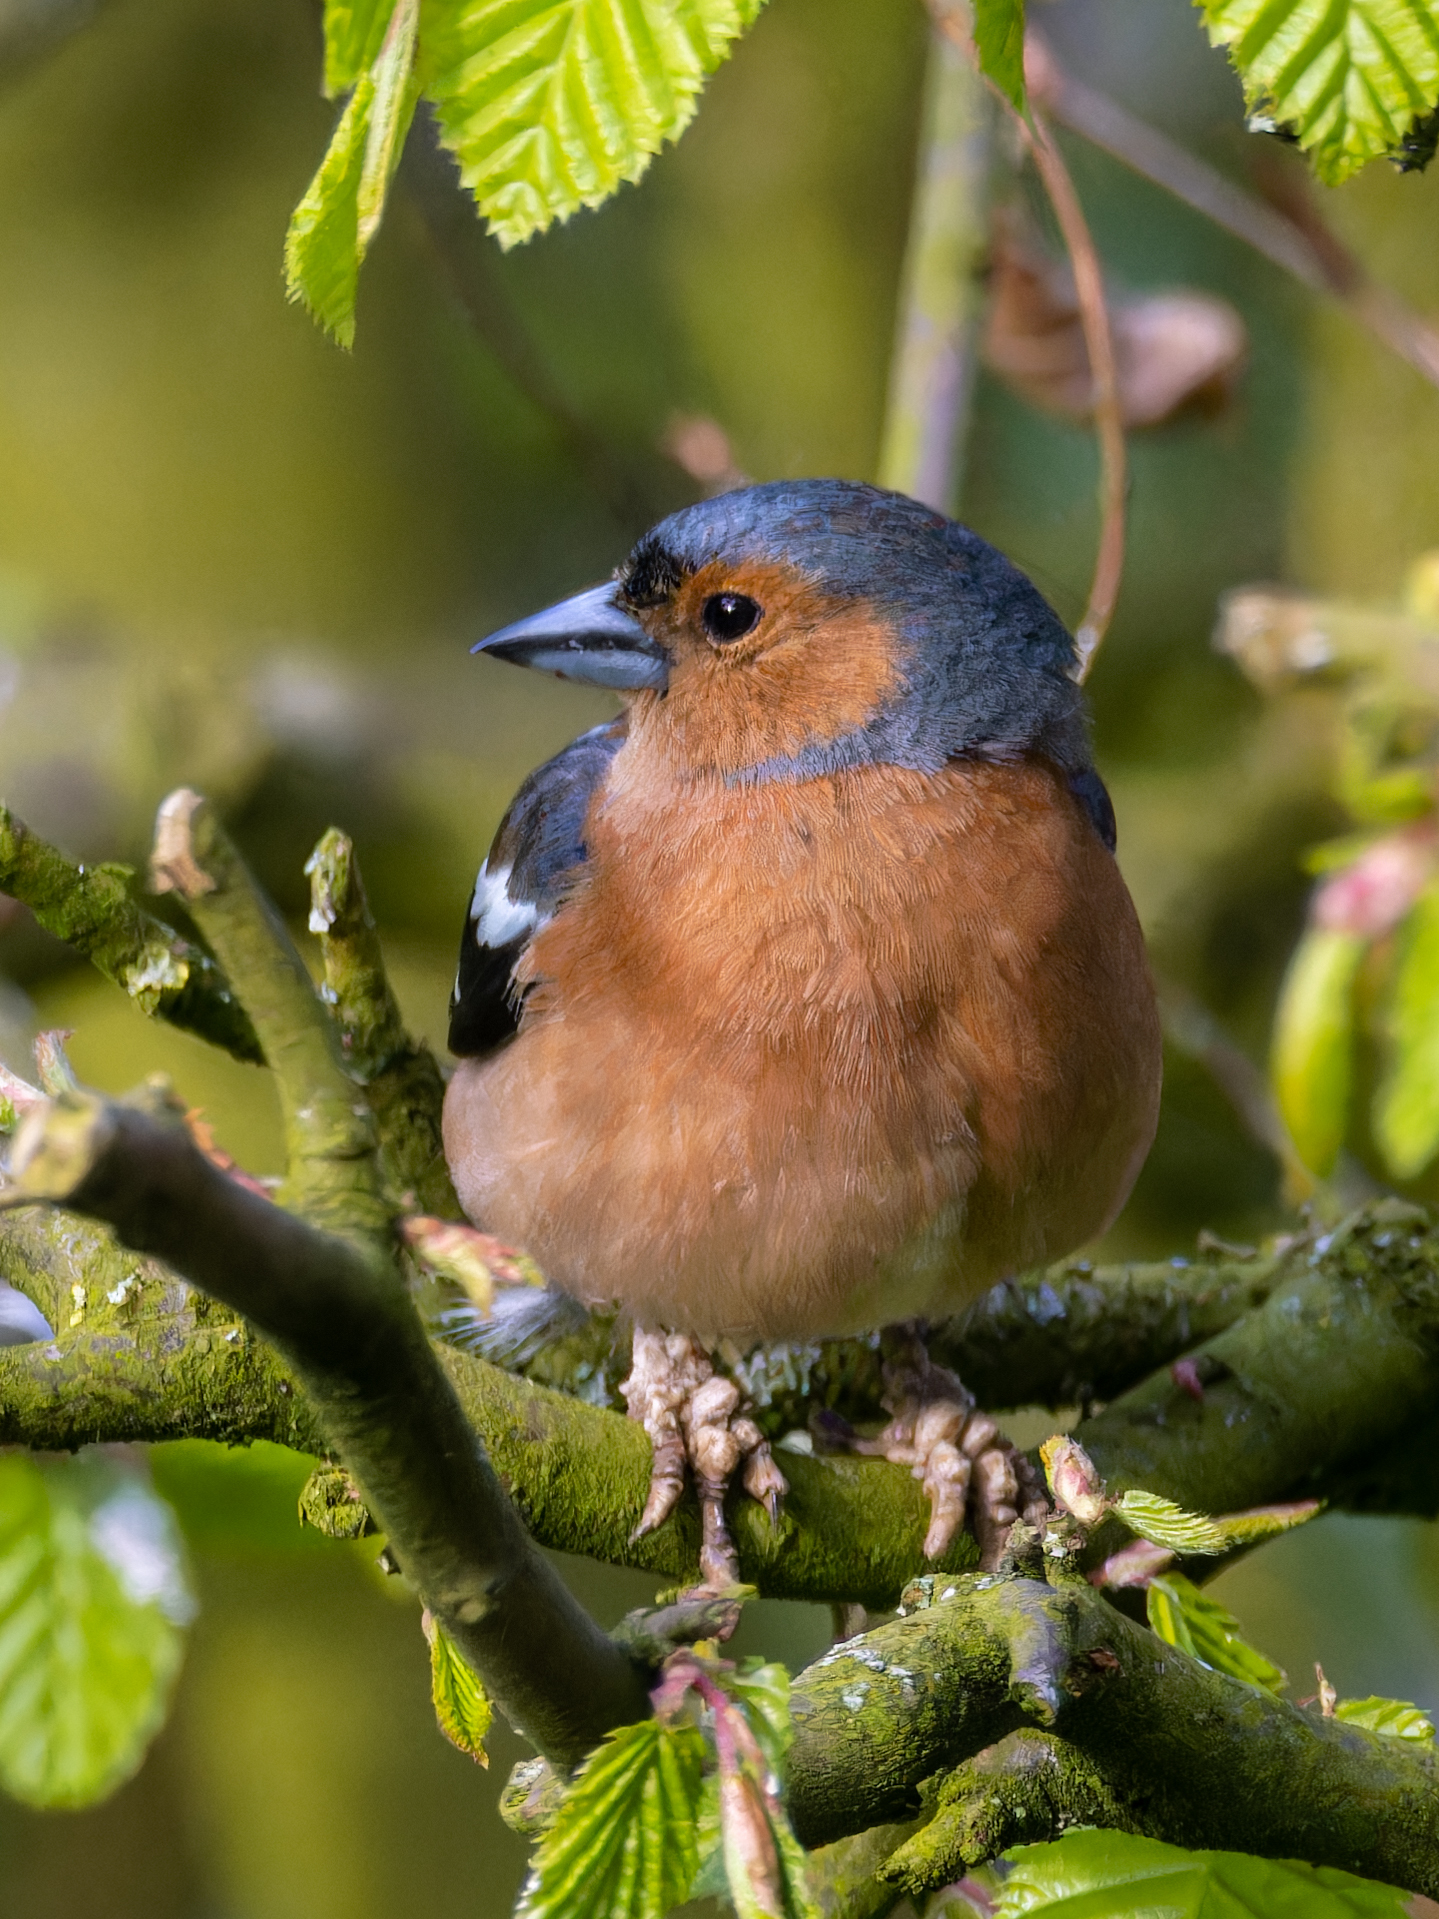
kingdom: Animalia
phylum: Chordata
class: Aves
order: Passeriformes
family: Fringillidae
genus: Fringilla
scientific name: Fringilla coelebs
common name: Common chaffinch
